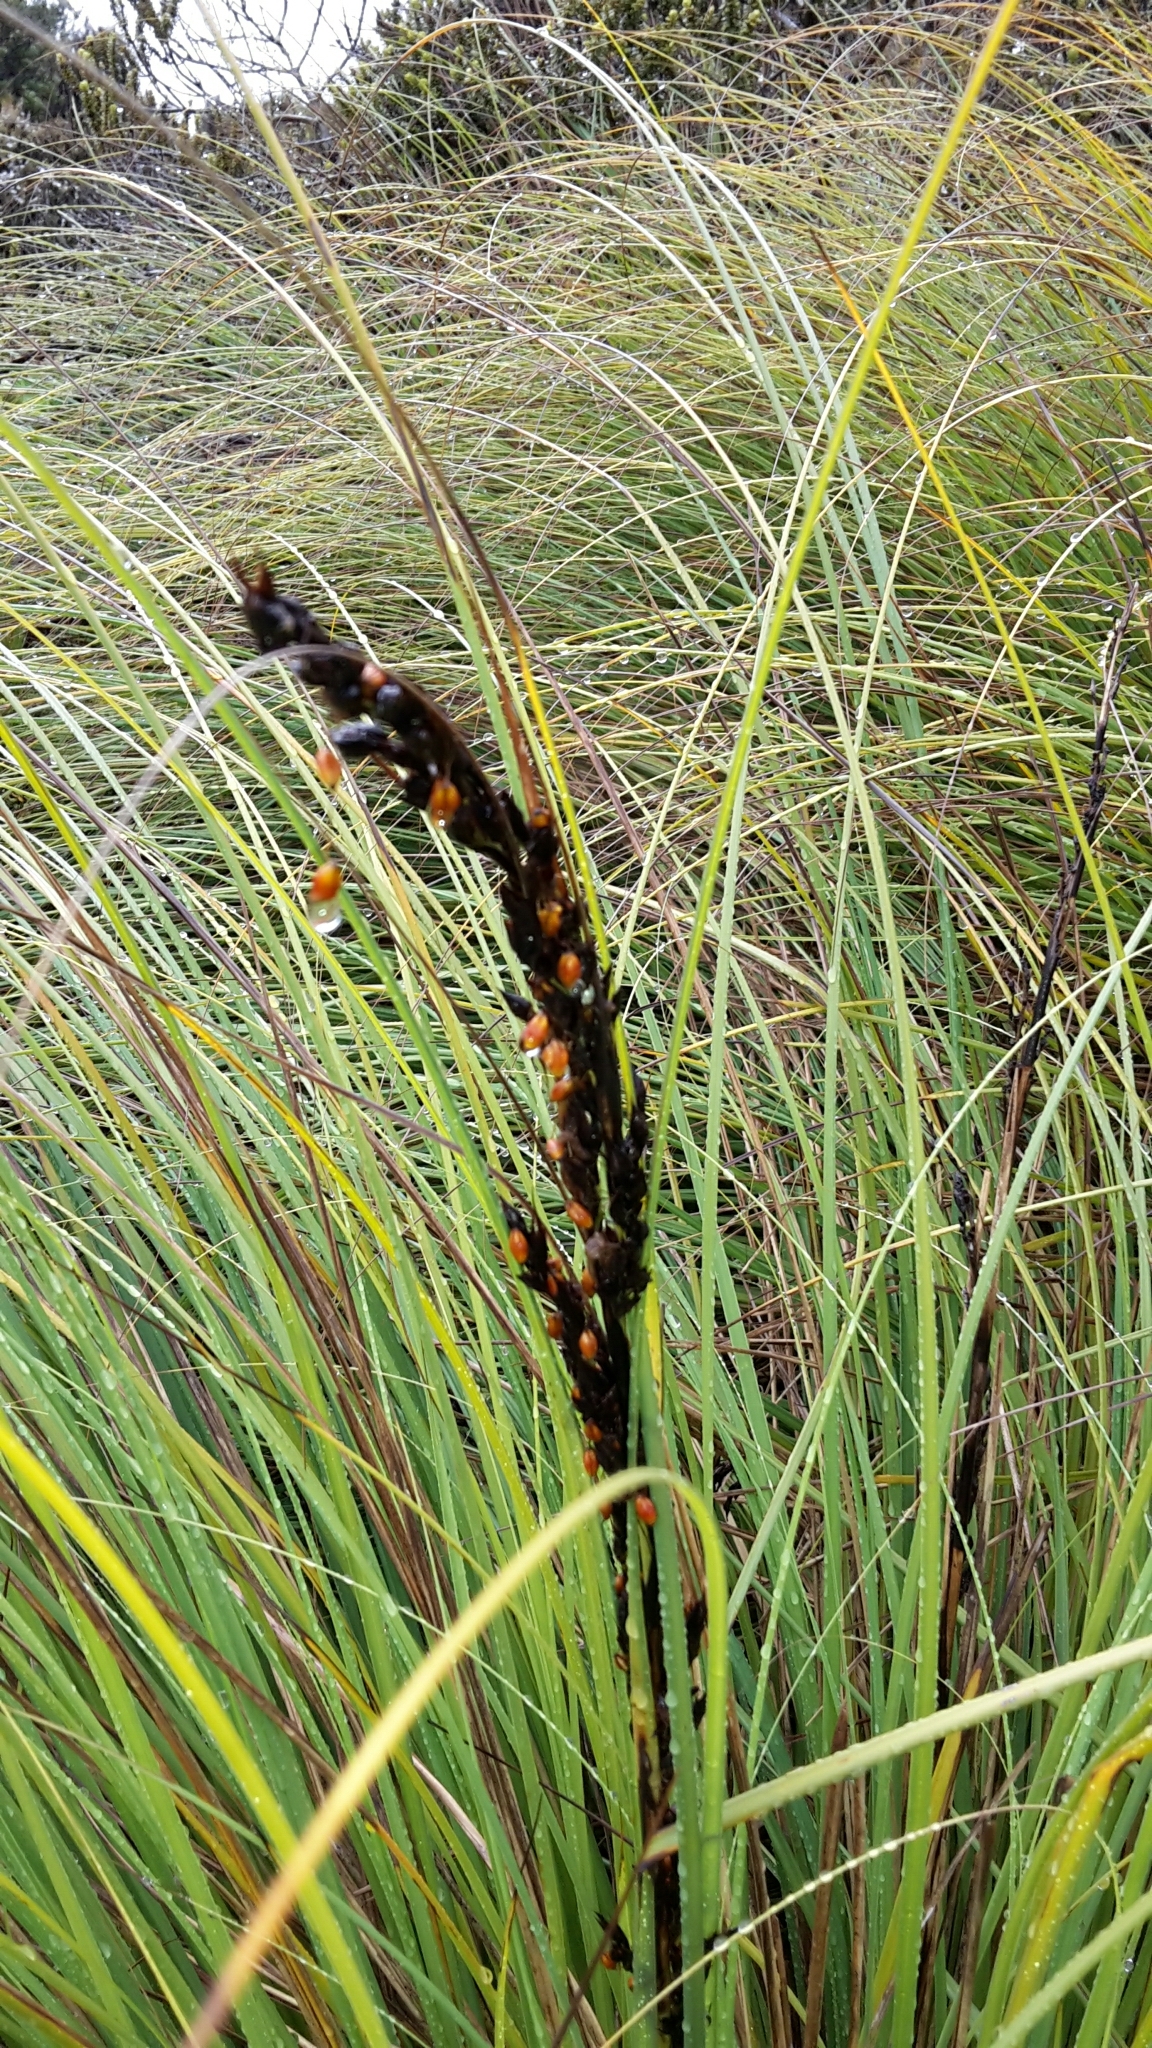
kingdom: Plantae
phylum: Tracheophyta
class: Liliopsida
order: Poales
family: Cyperaceae
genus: Gahnia
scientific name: Gahnia procera
